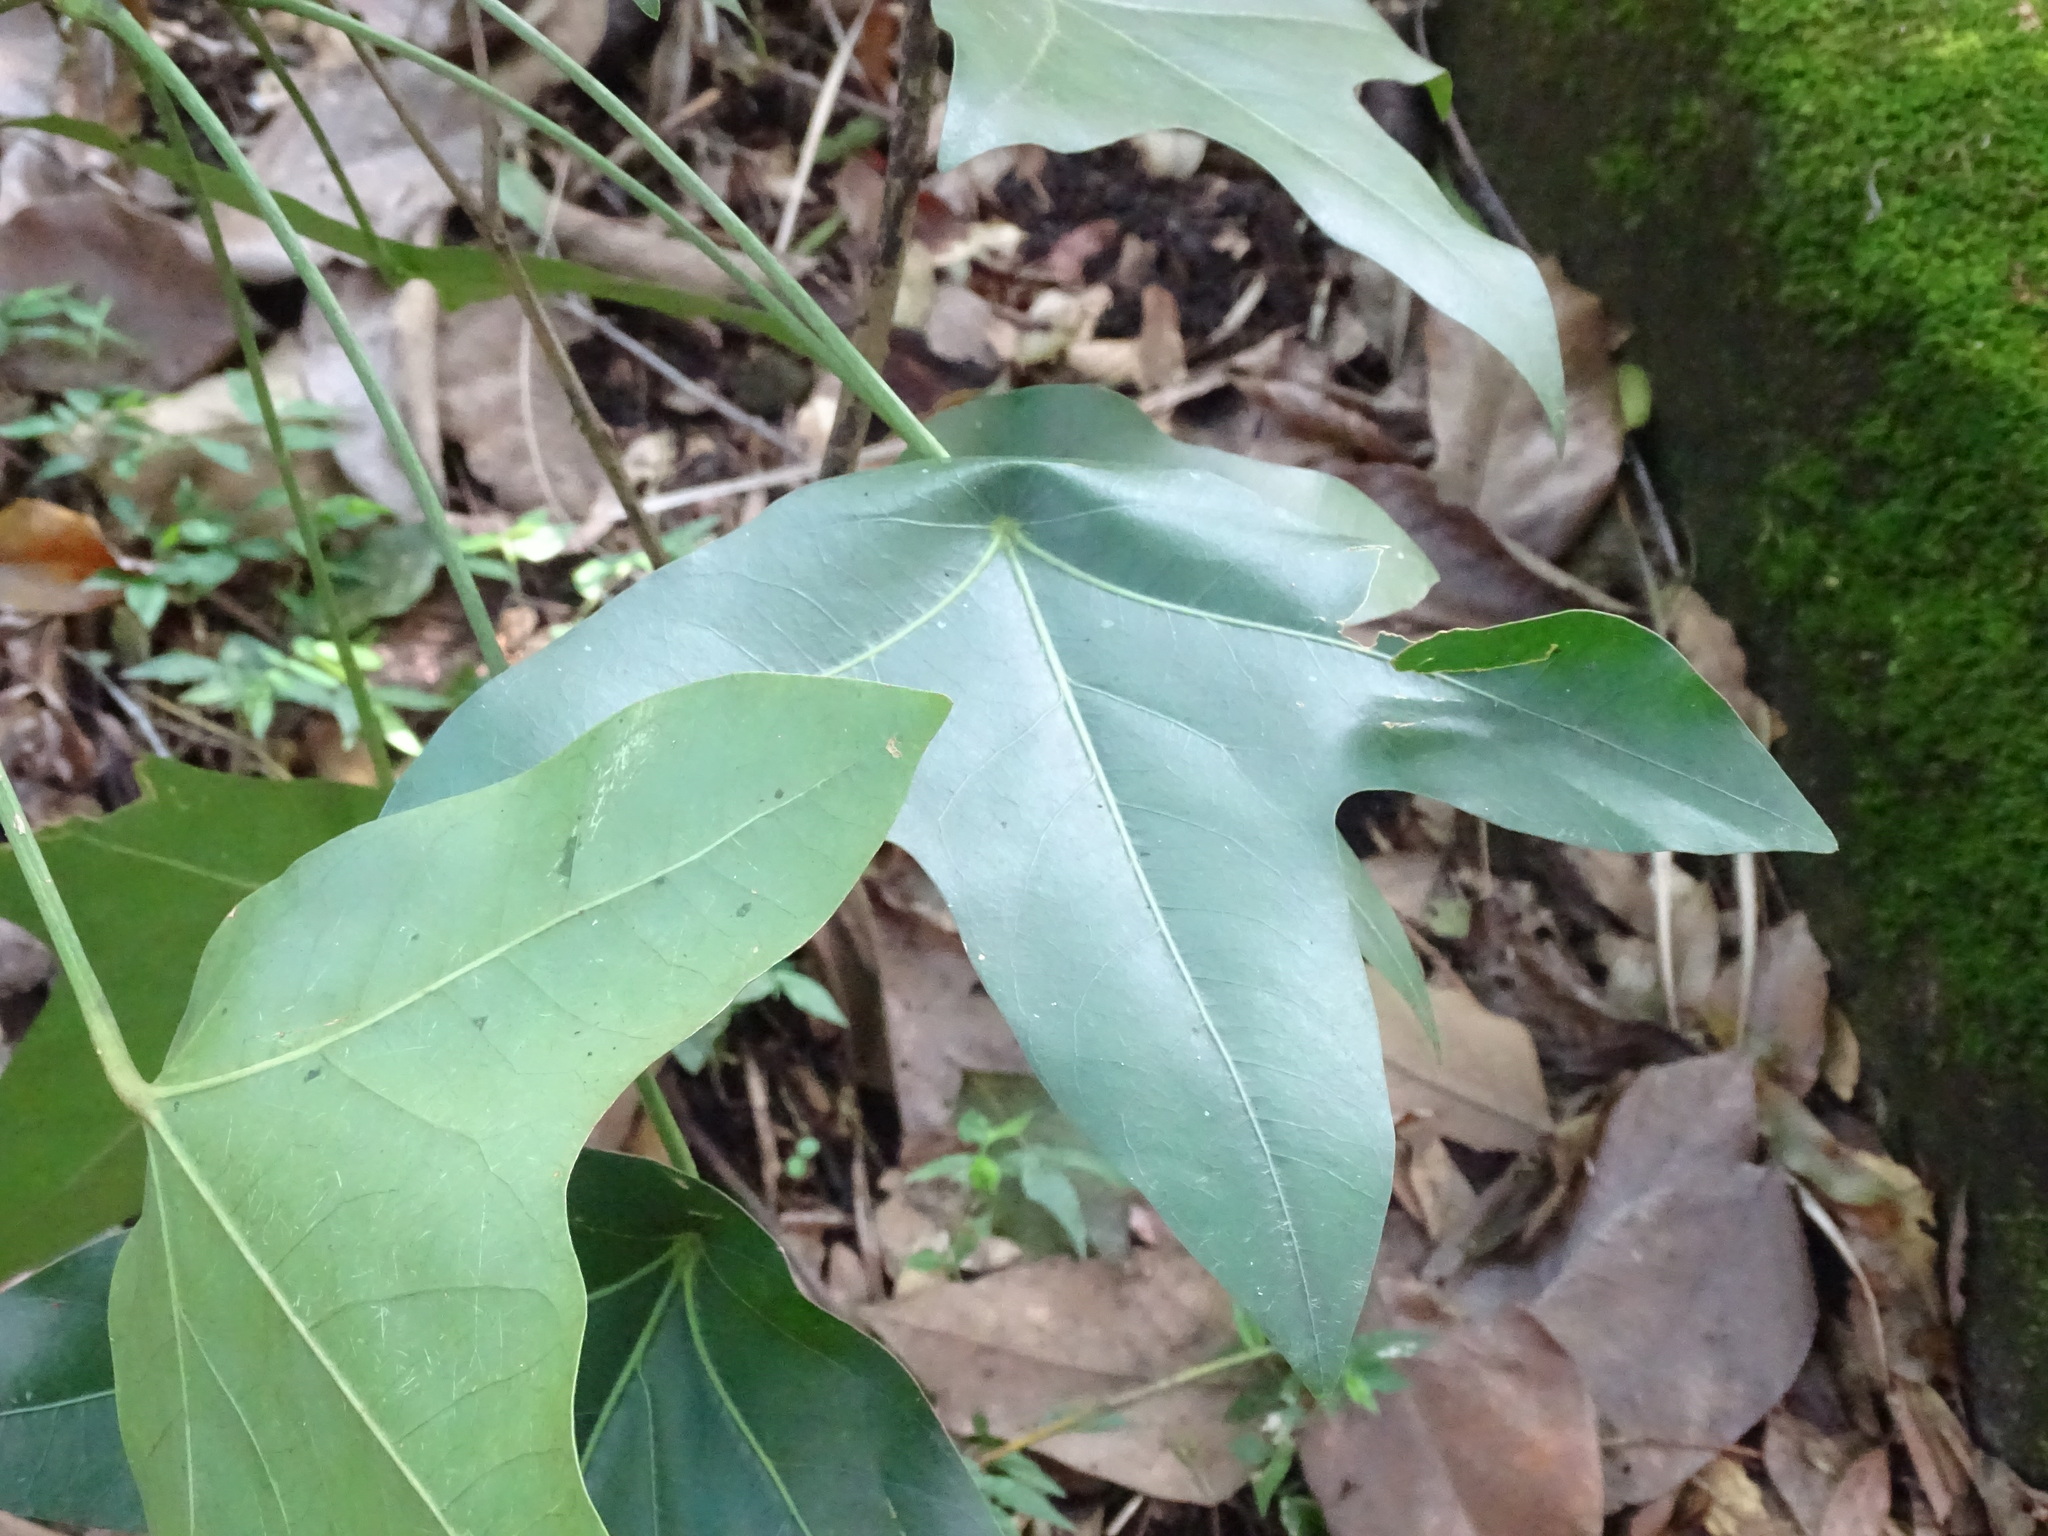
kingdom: Plantae
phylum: Tracheophyta
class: Magnoliopsida
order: Apiales
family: Araliaceae
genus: Oreopanax
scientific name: Oreopanax sanderianus
